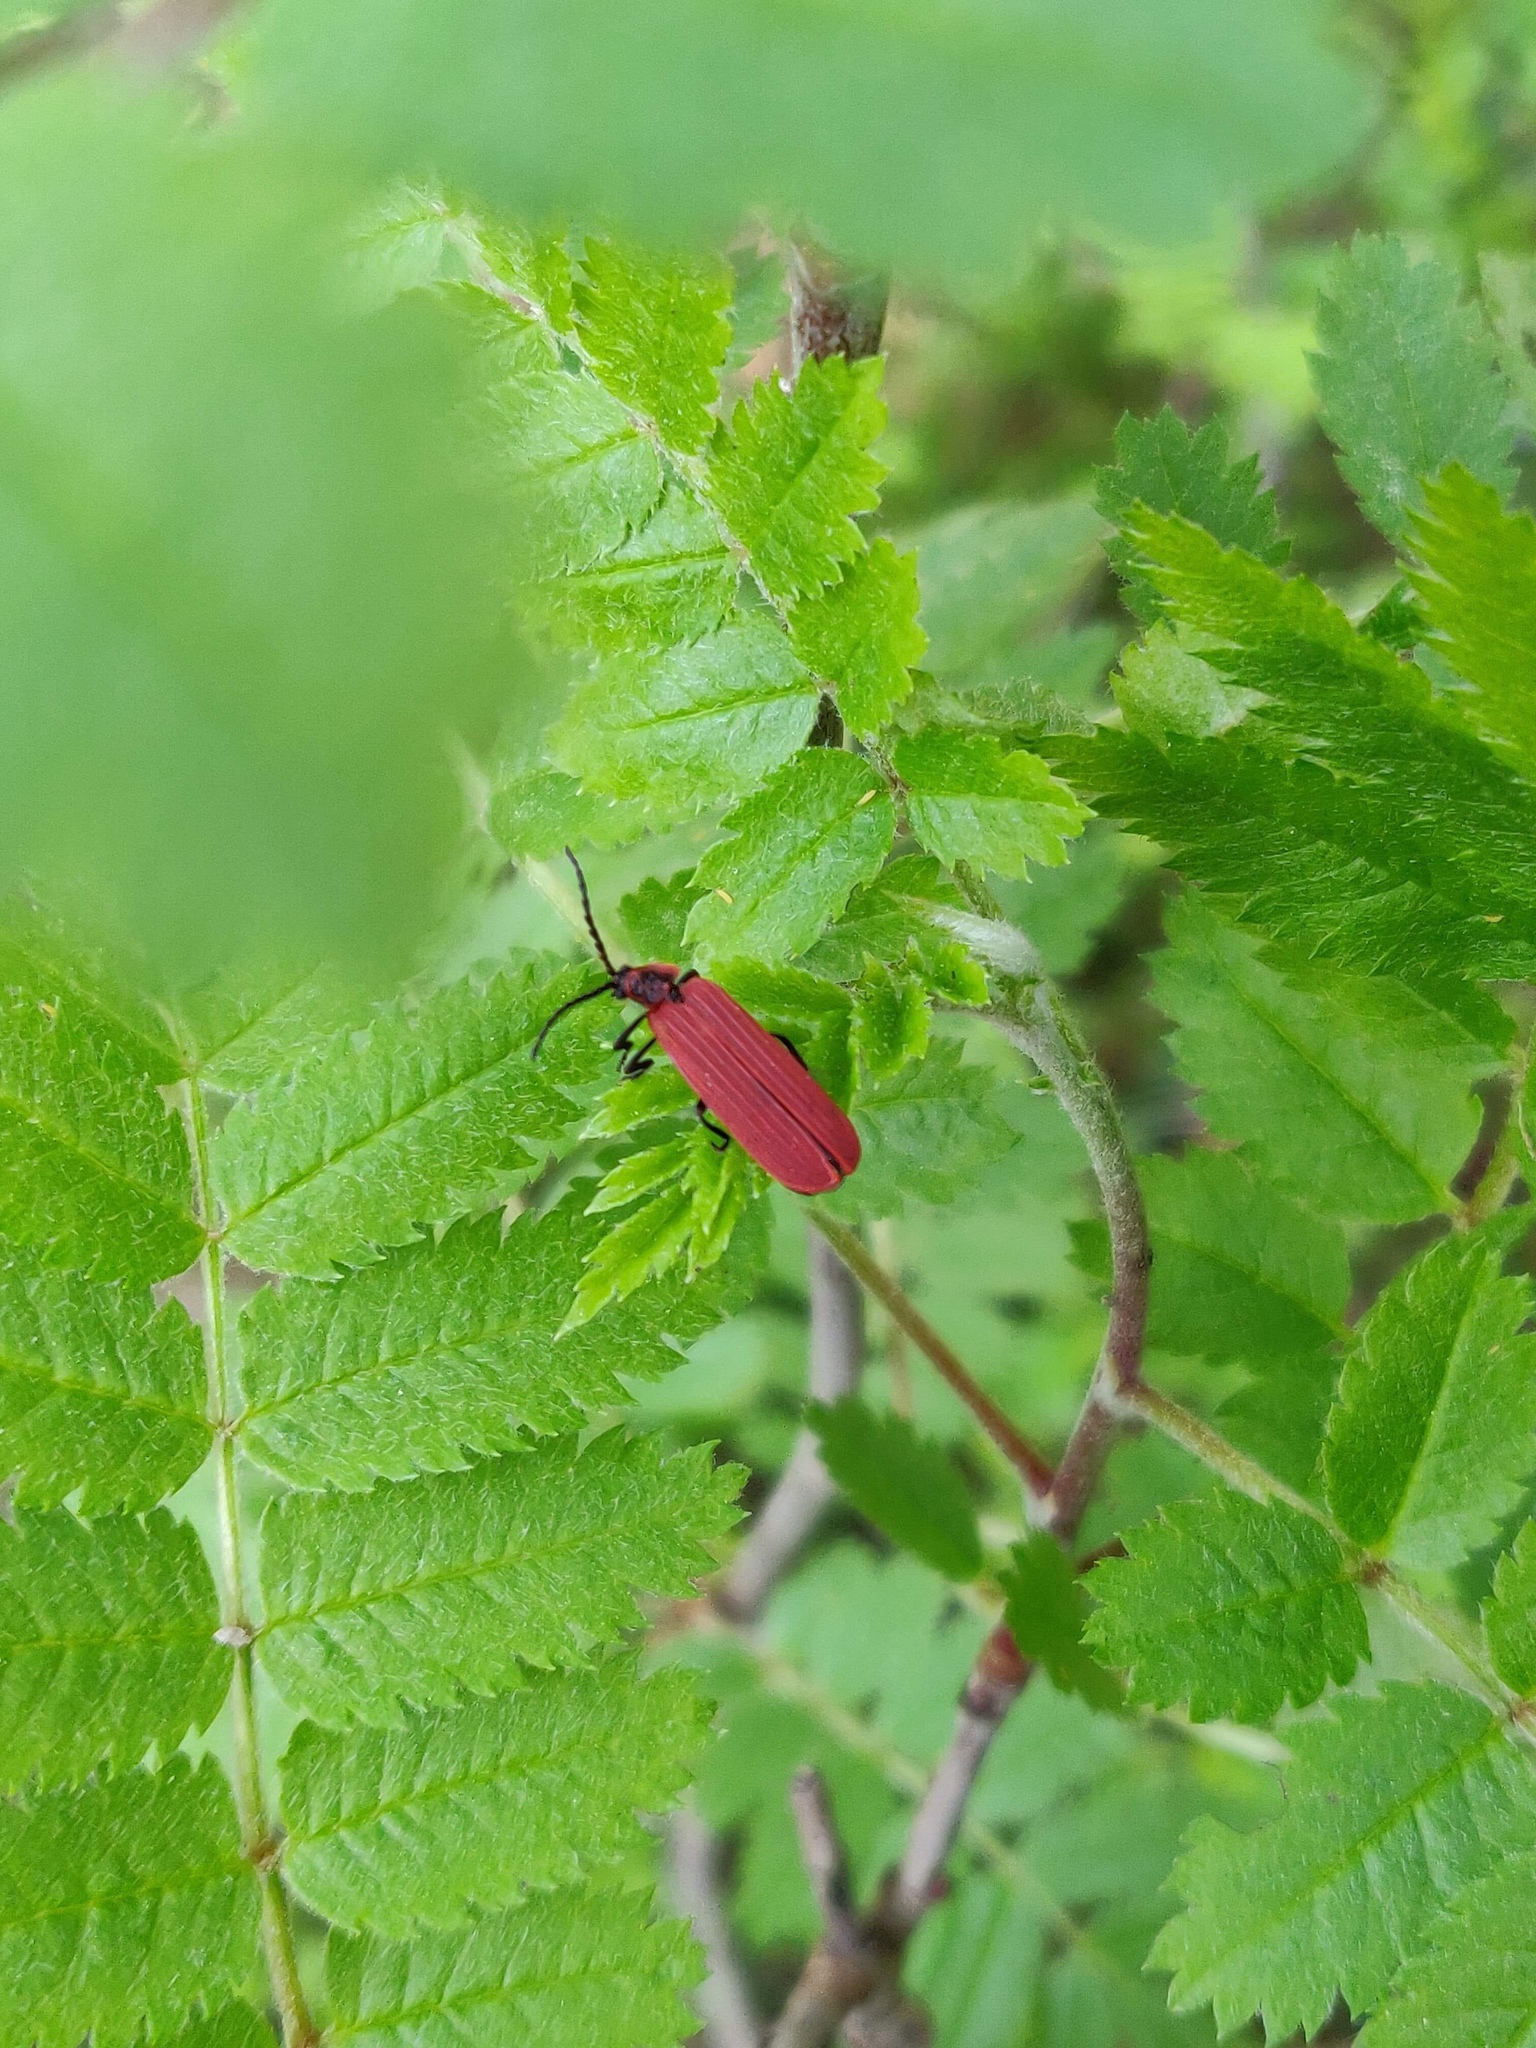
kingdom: Animalia
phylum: Arthropoda
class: Insecta
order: Coleoptera
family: Lycidae
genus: Dictyoptera
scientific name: Dictyoptera aurora
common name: Golden net-winged beetle
